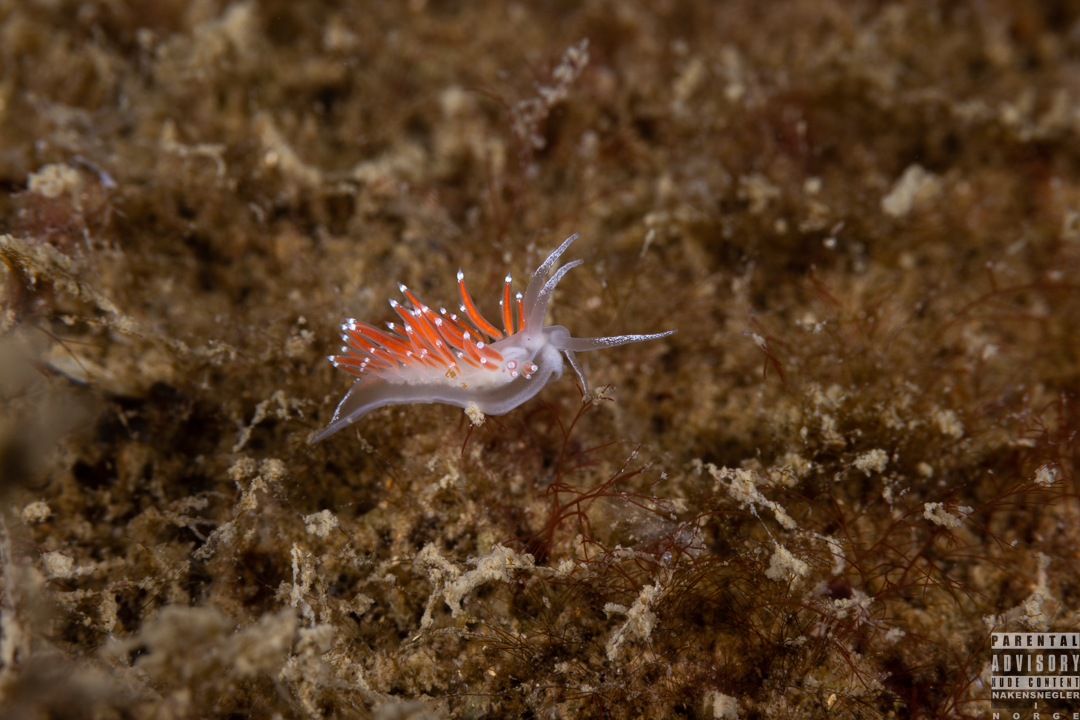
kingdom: Animalia
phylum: Mollusca
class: Gastropoda
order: Nudibranchia
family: Coryphellidae
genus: Coryphella
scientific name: Coryphella gracilis
